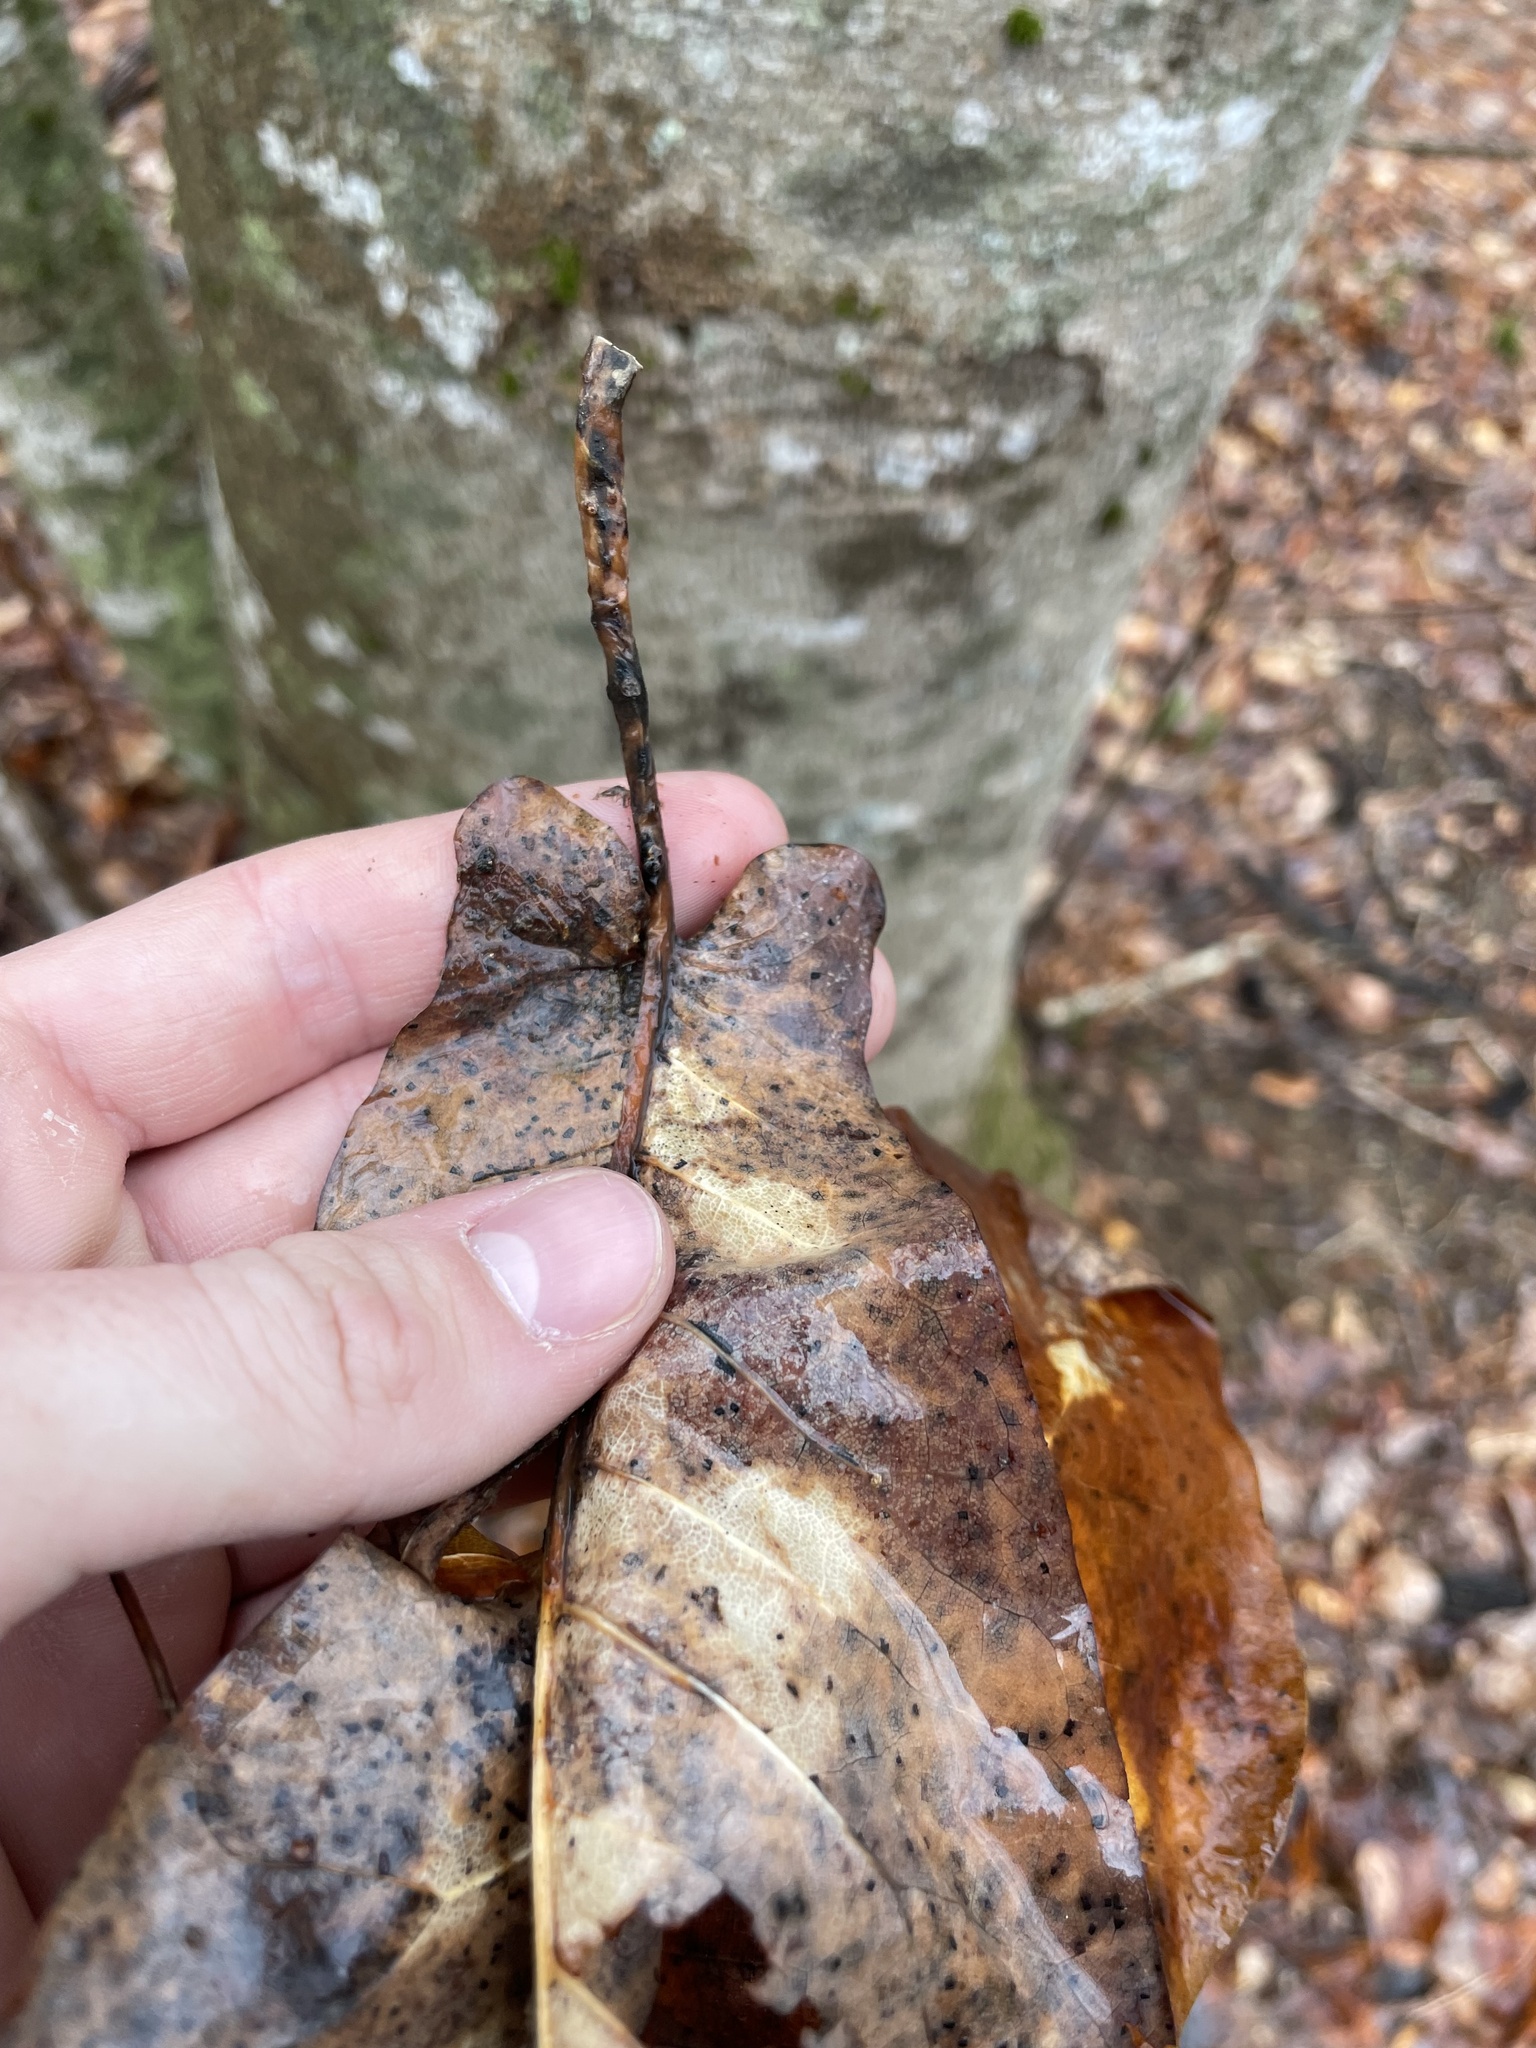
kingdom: Plantae
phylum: Tracheophyta
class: Magnoliopsida
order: Magnoliales
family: Magnoliaceae
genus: Magnolia
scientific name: Magnolia fraseri
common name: Fraser's magnolia
